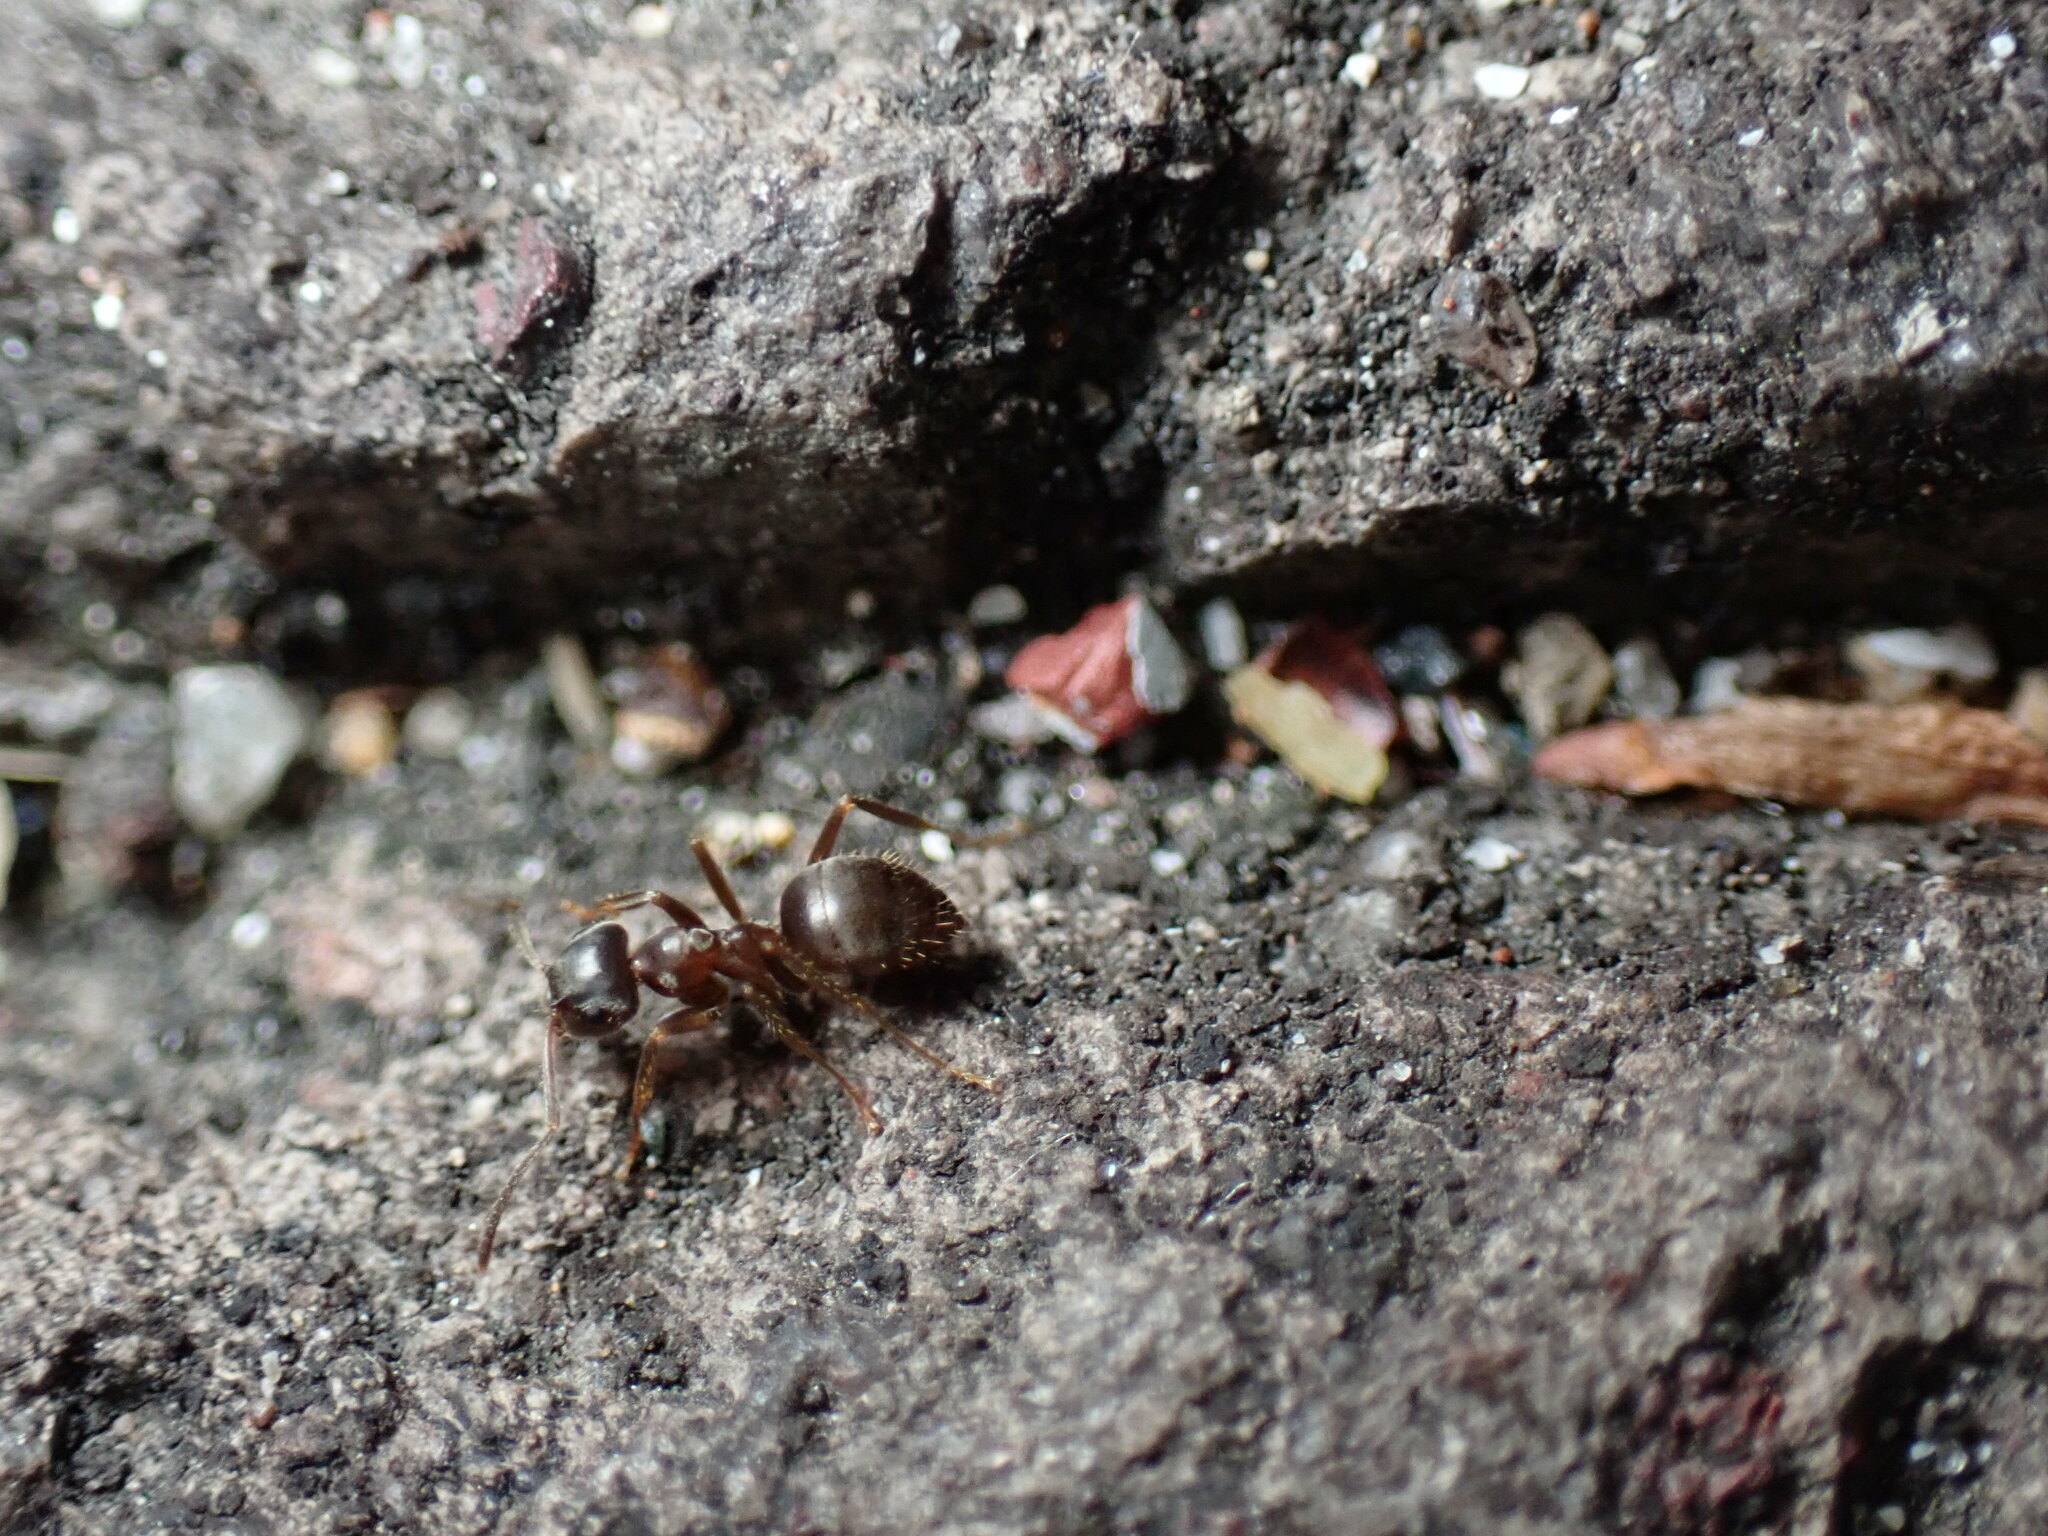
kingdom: Animalia
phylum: Arthropoda
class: Insecta
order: Hymenoptera
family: Formicidae
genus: Lasius
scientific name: Lasius japonicus
